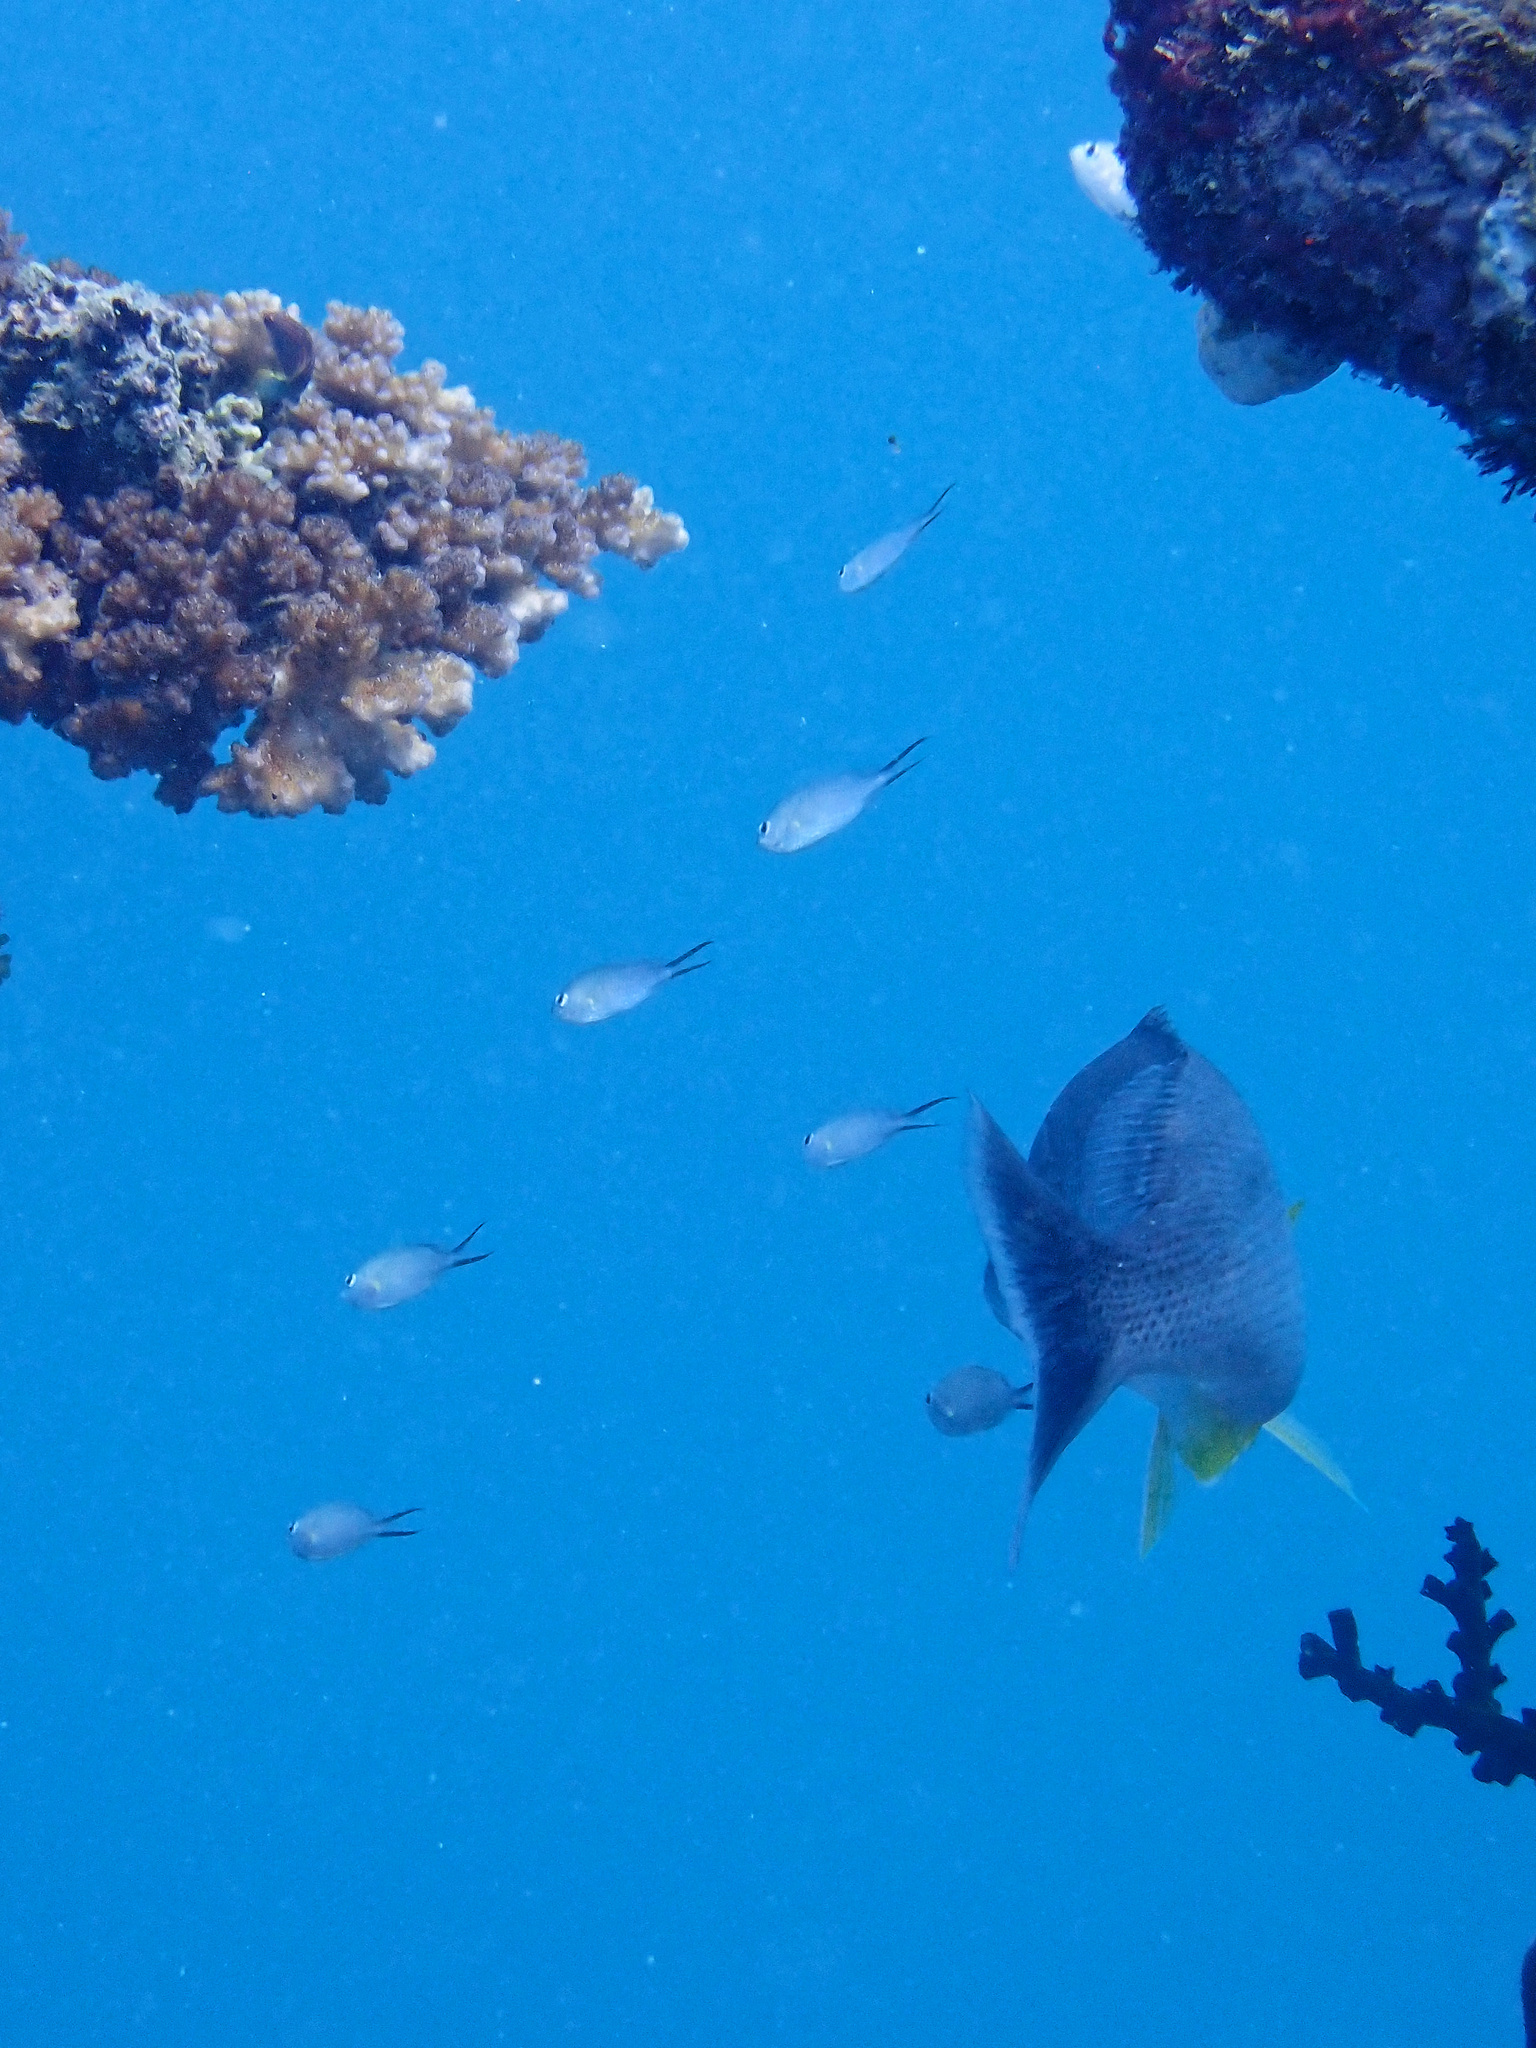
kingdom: Animalia
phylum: Chordata
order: Perciformes
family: Lutjanidae
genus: Lutjanus
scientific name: Lutjanus russellii
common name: Russell's snapper
